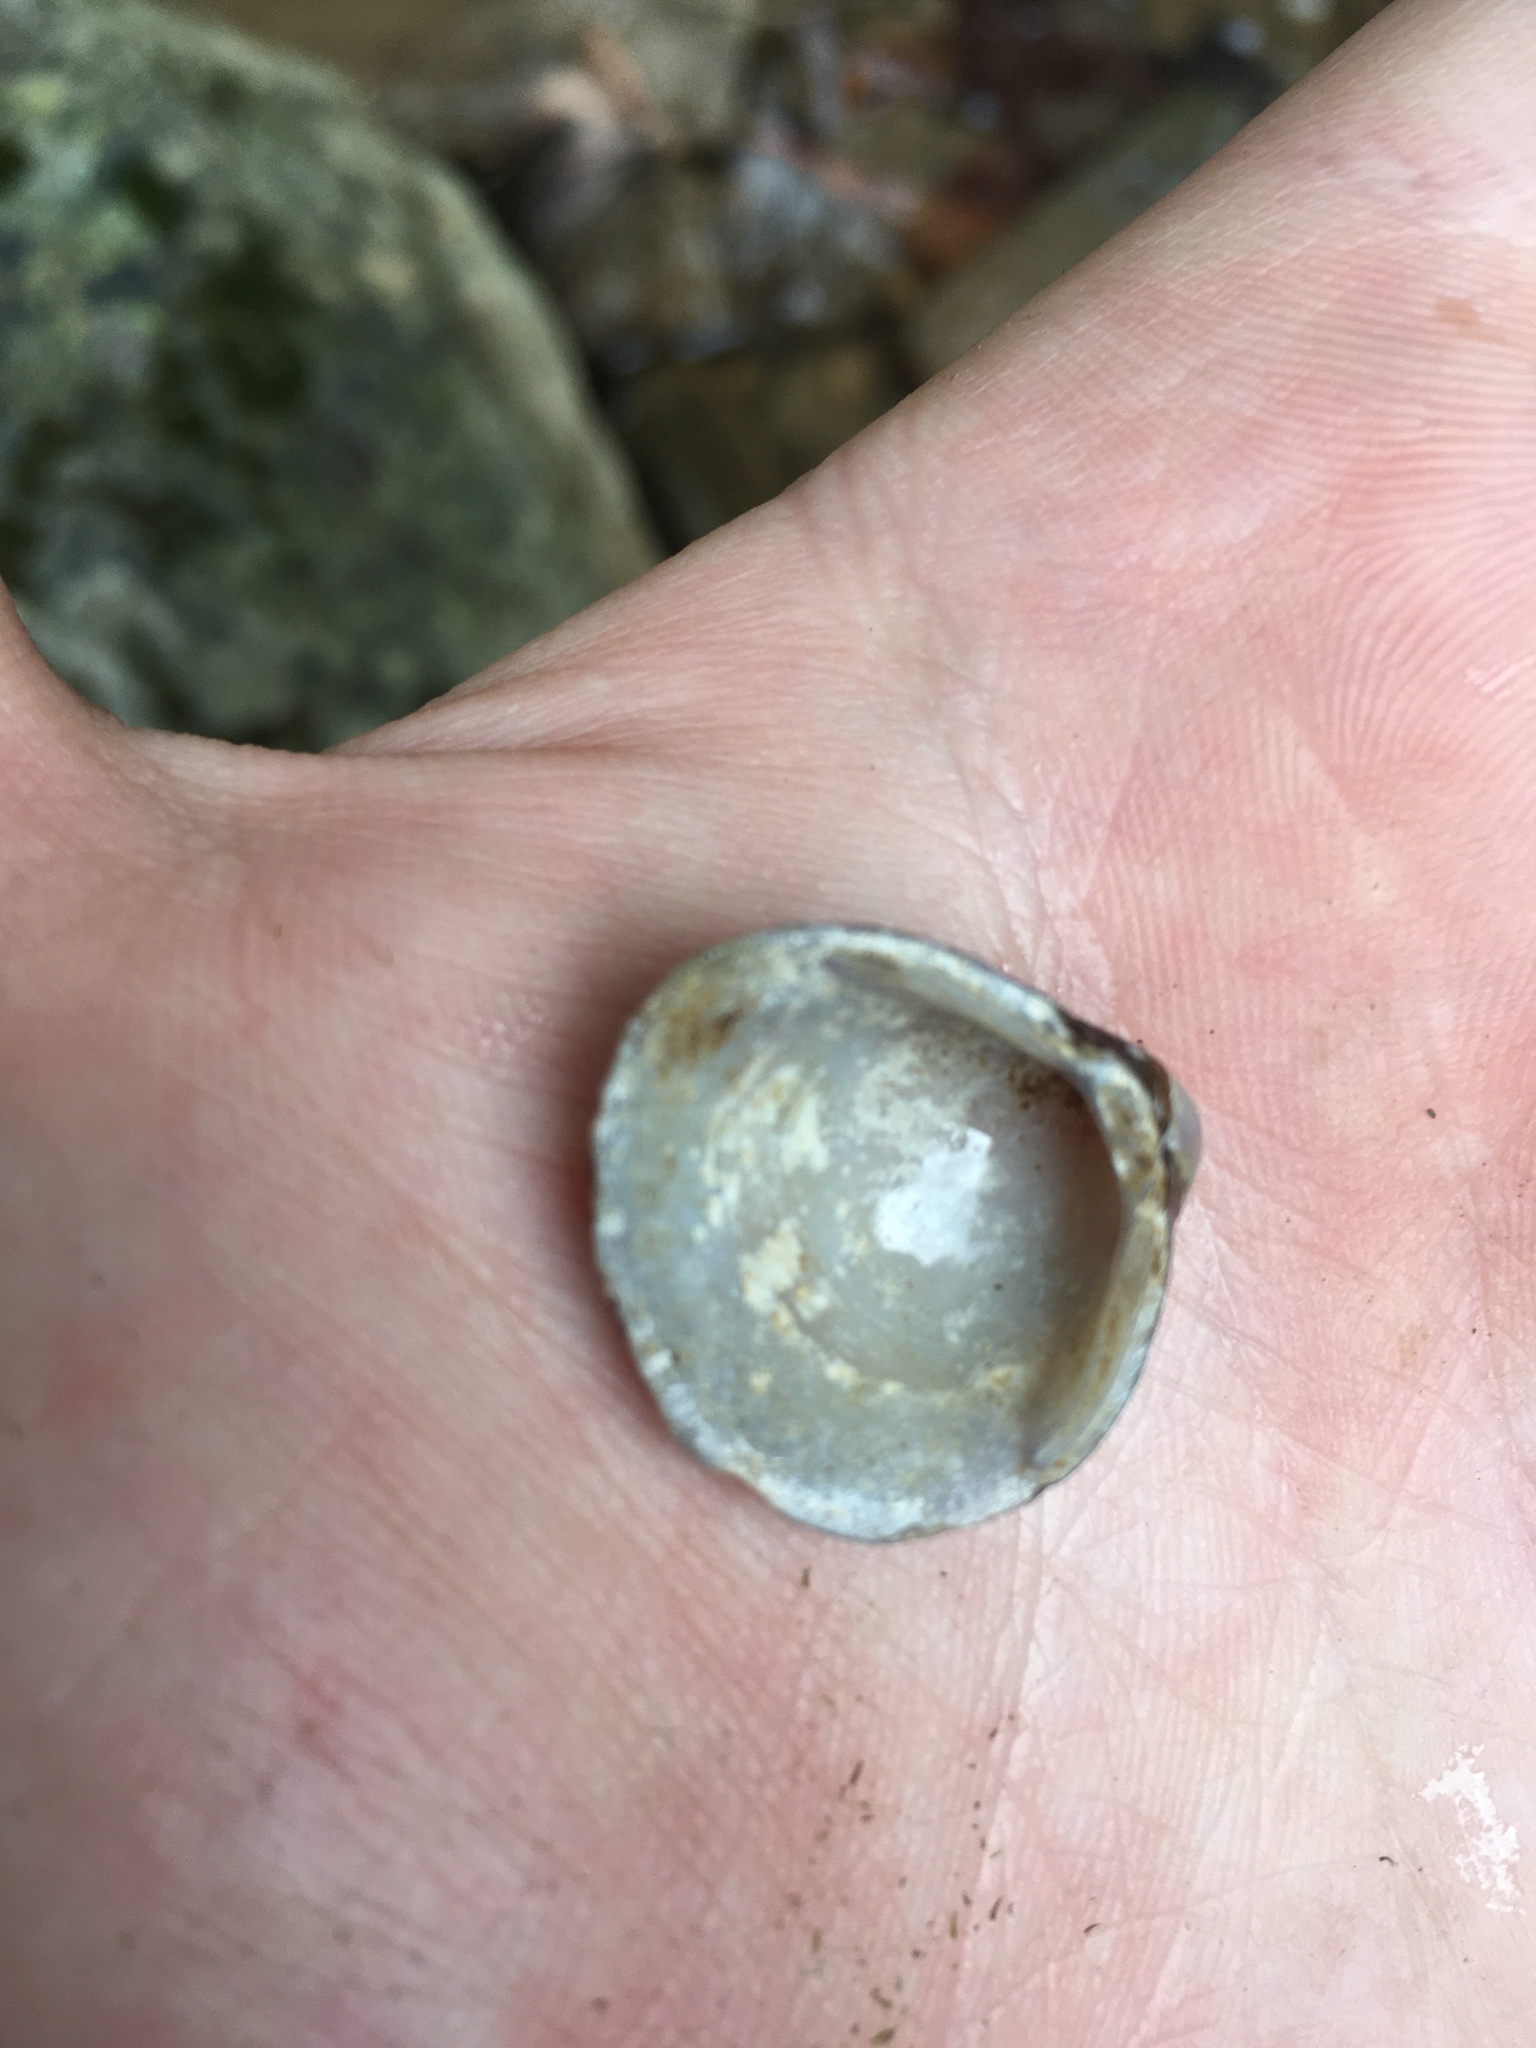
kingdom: Animalia
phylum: Mollusca
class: Bivalvia
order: Venerida
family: Cyrenidae
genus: Corbicula
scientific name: Corbicula fluminea
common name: Asian clam
